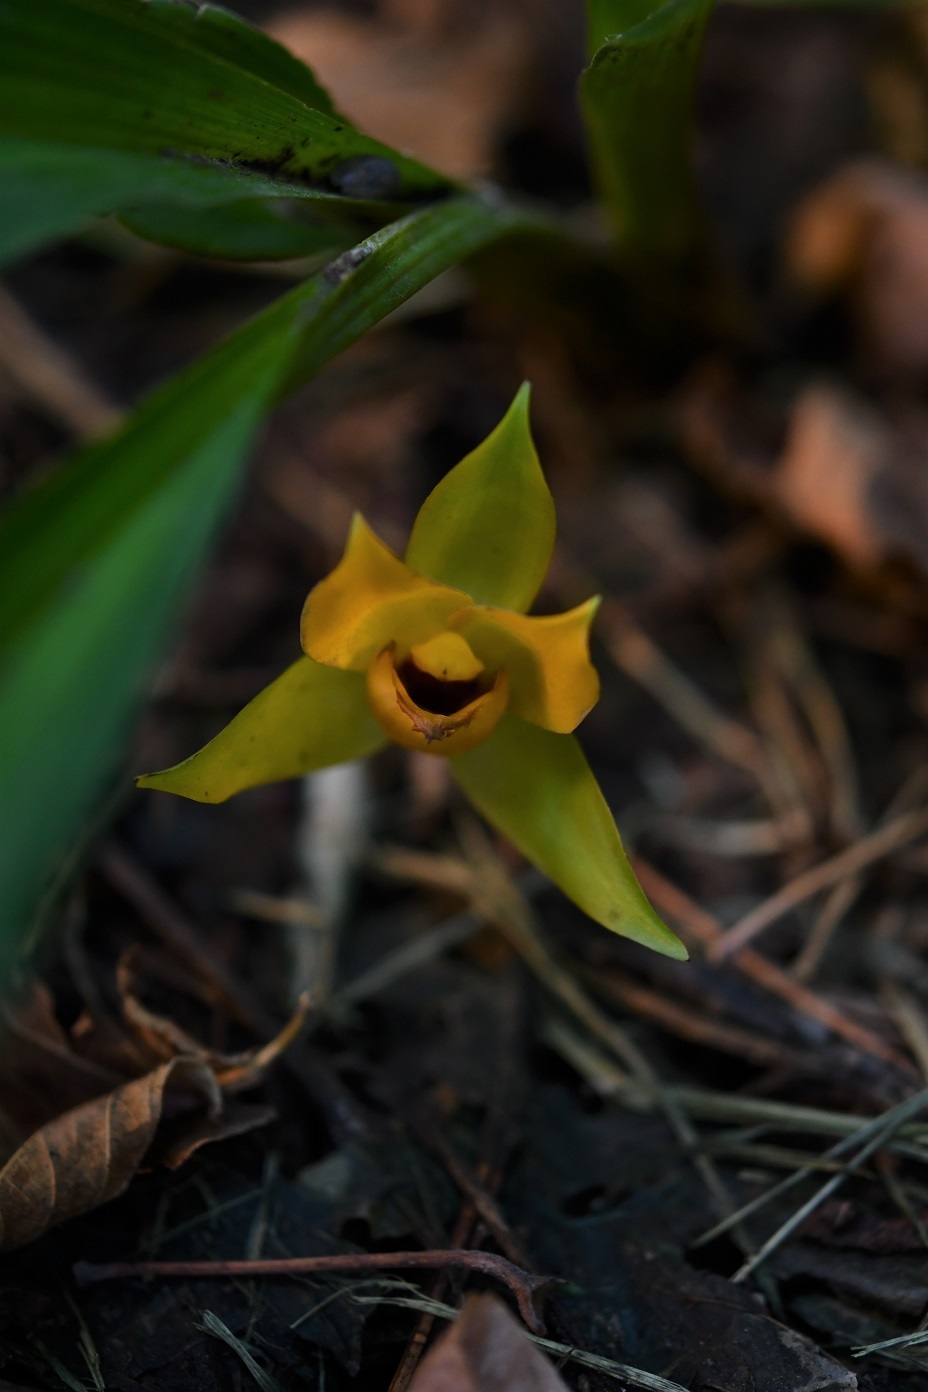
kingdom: Plantae
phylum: Tracheophyta
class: Liliopsida
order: Asparagales
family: Orchidaceae
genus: Lycaste
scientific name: Lycaste cruenta
